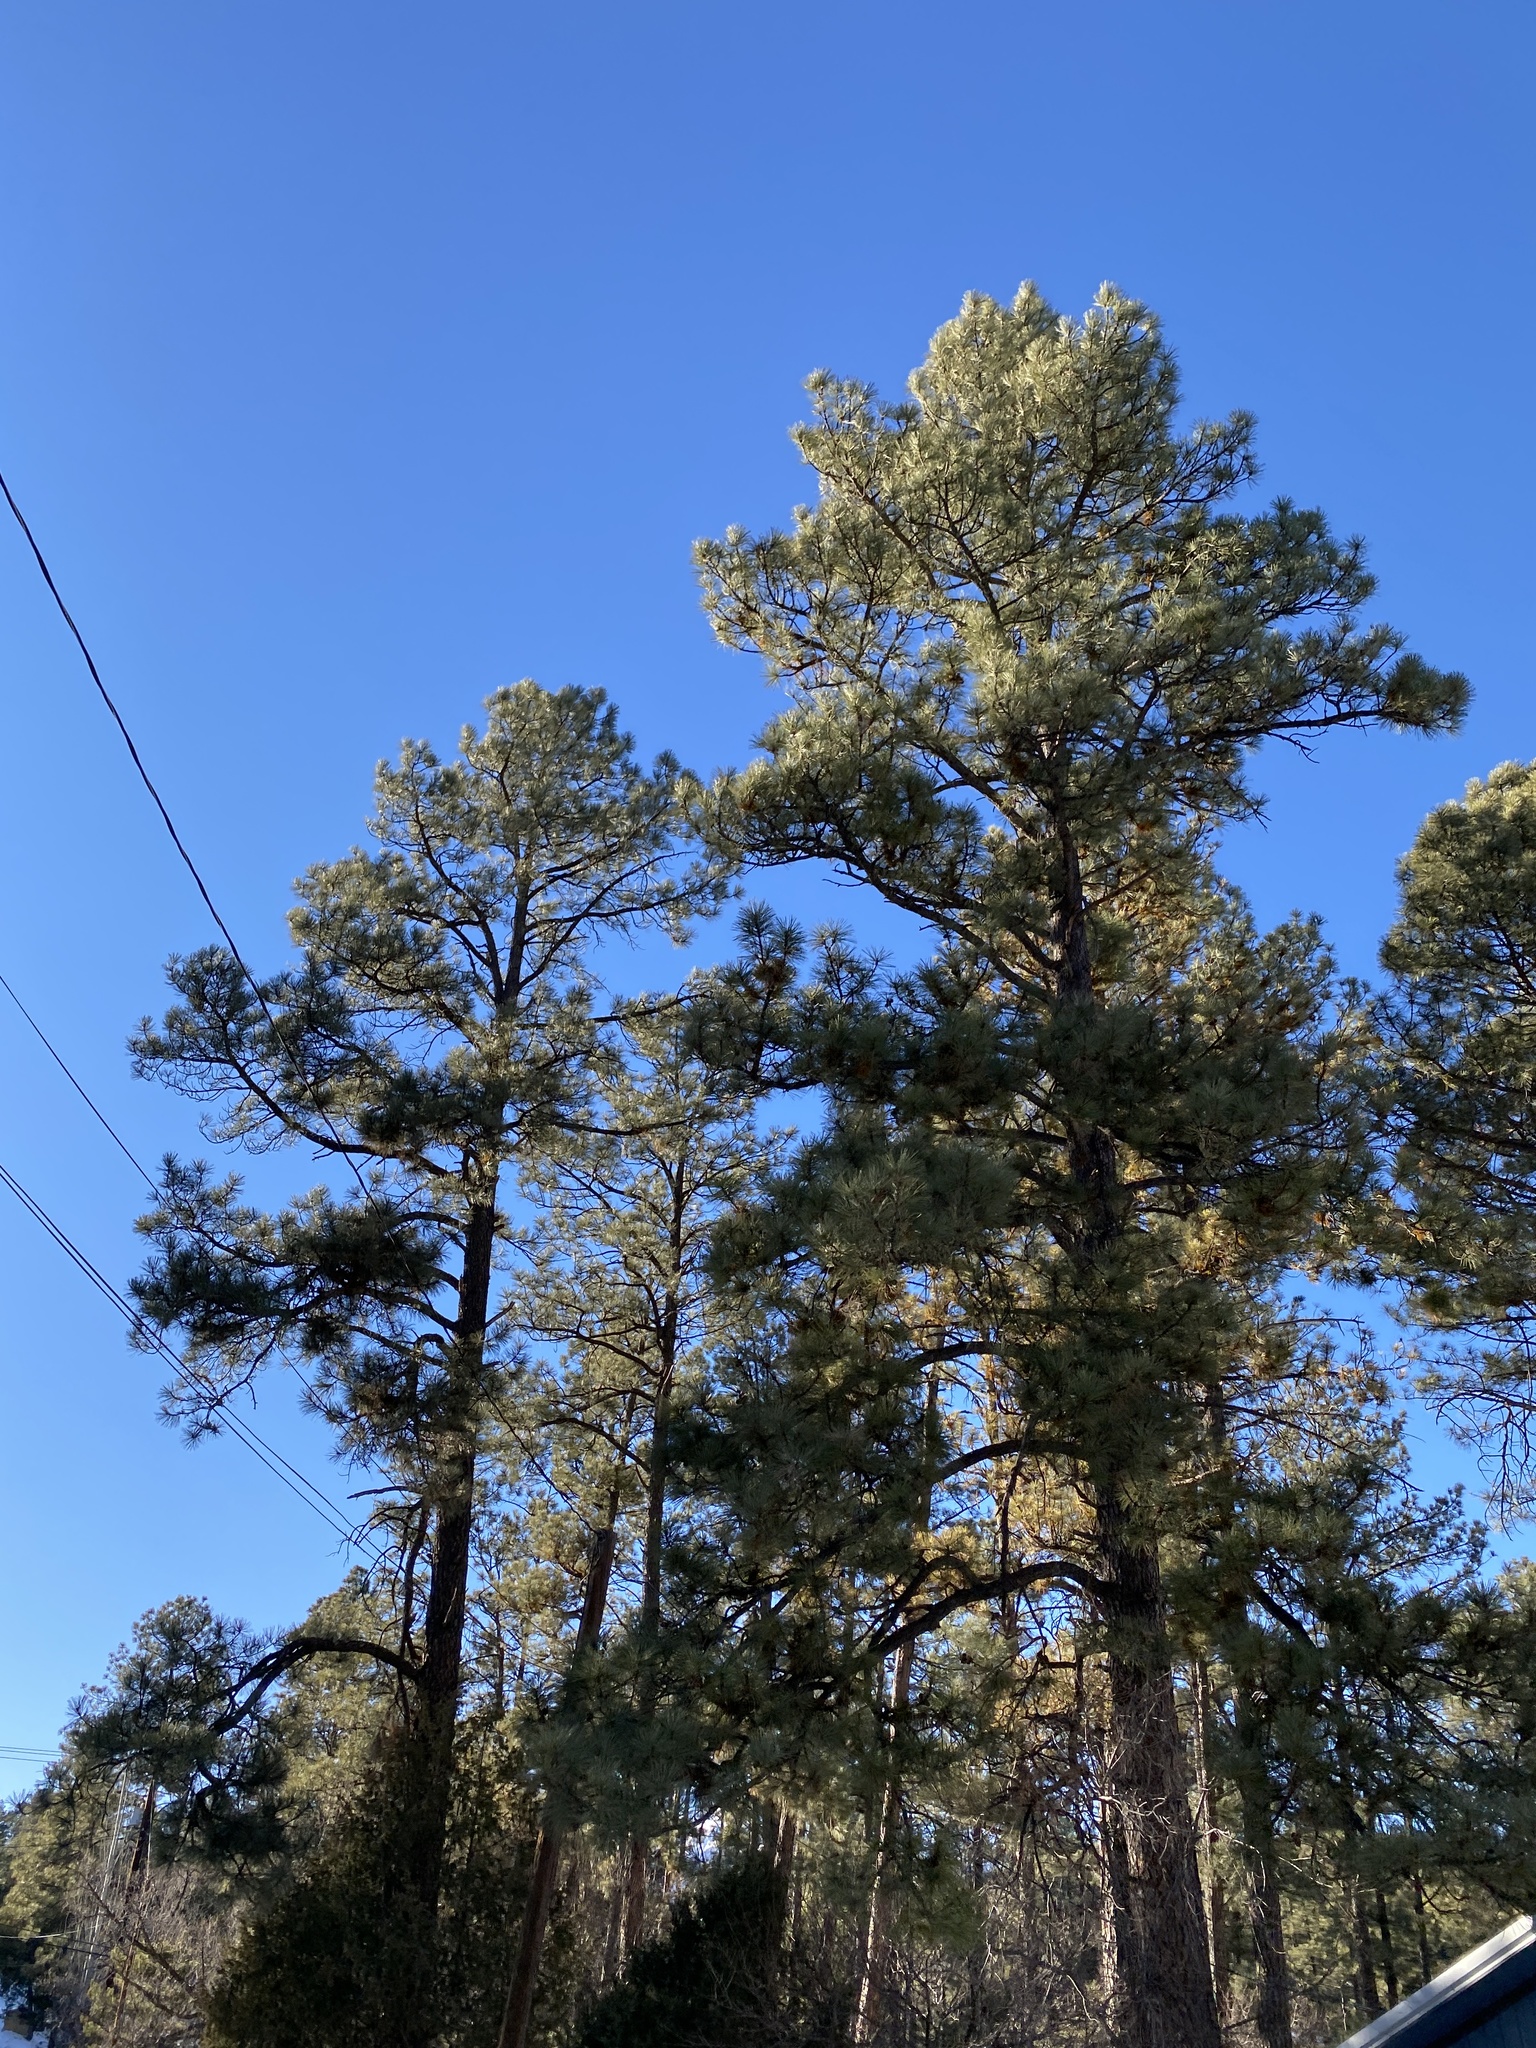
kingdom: Plantae
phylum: Tracheophyta
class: Pinopsida
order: Pinales
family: Pinaceae
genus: Pinus
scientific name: Pinus ponderosa
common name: Western yellow-pine
